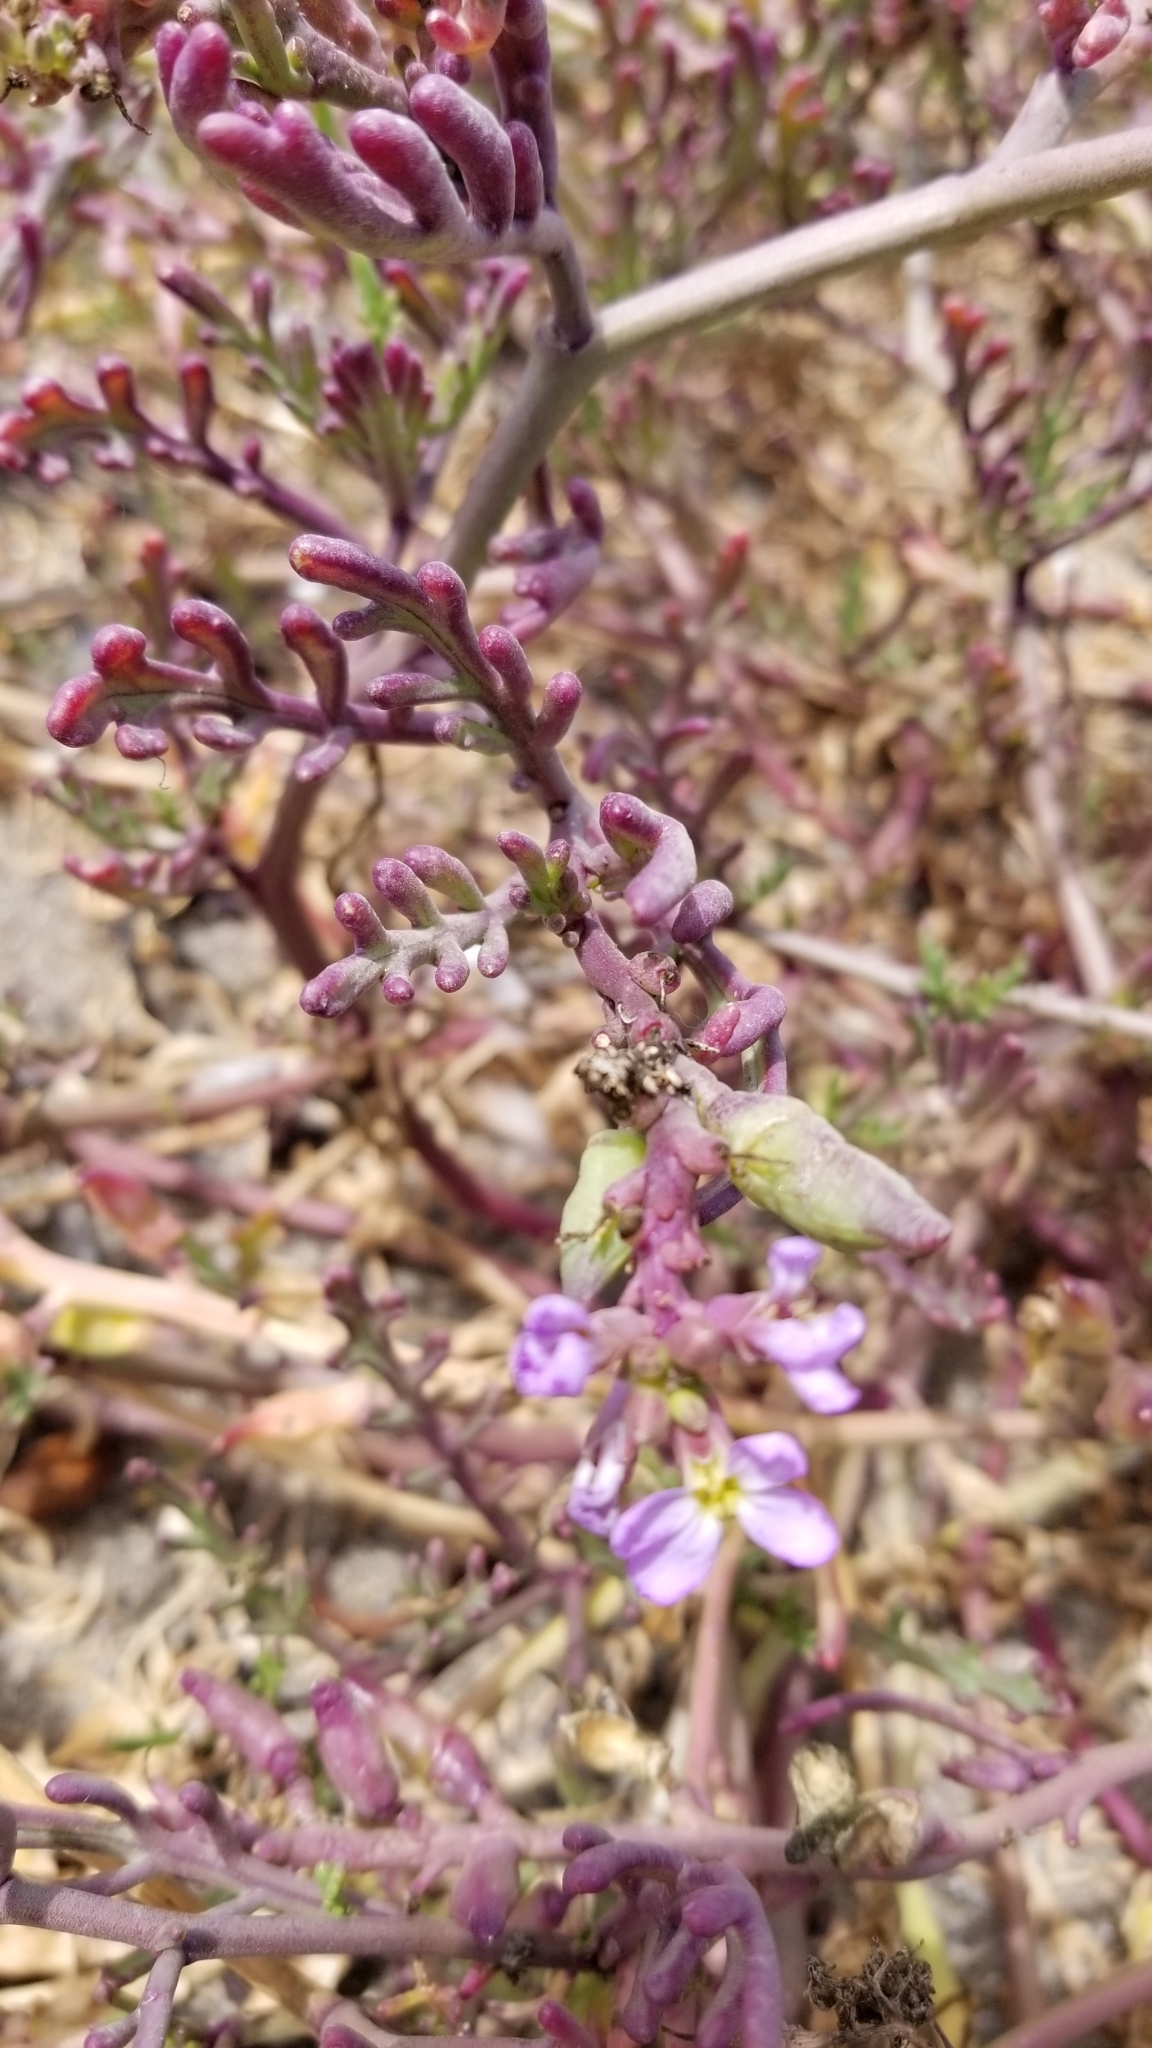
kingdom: Plantae
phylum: Tracheophyta
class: Magnoliopsida
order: Brassicales
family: Brassicaceae
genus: Cakile
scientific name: Cakile maritima
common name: Sea rocket
